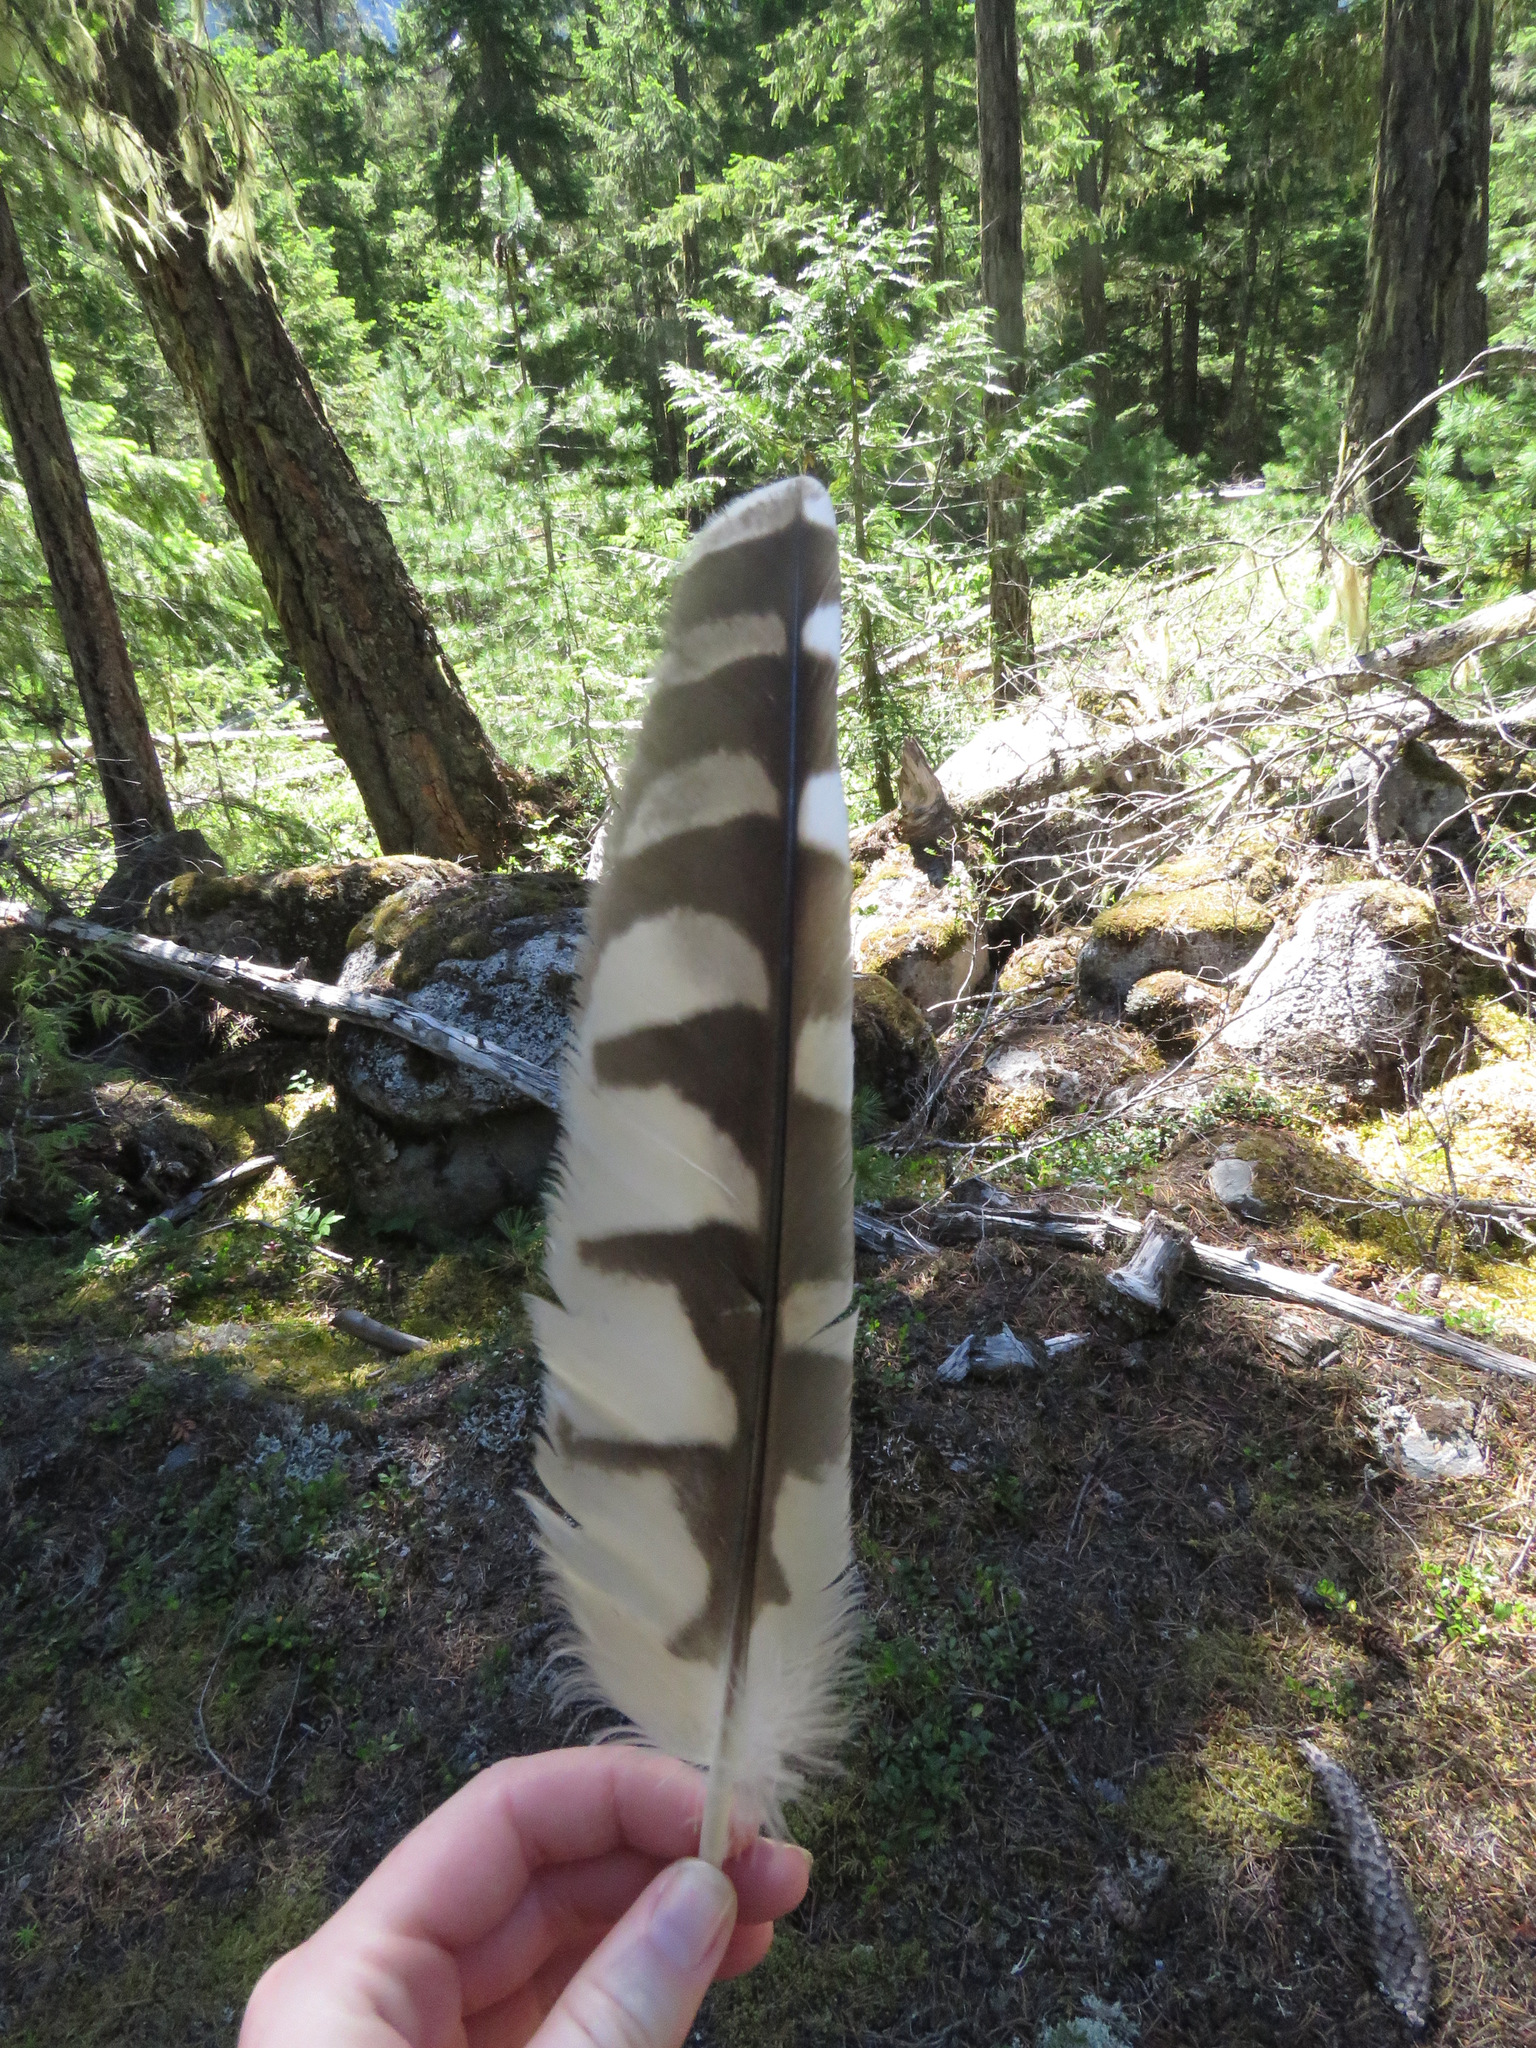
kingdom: Animalia
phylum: Chordata
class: Aves
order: Strigiformes
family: Strigidae
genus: Strix
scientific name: Strix varia
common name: Barred owl
